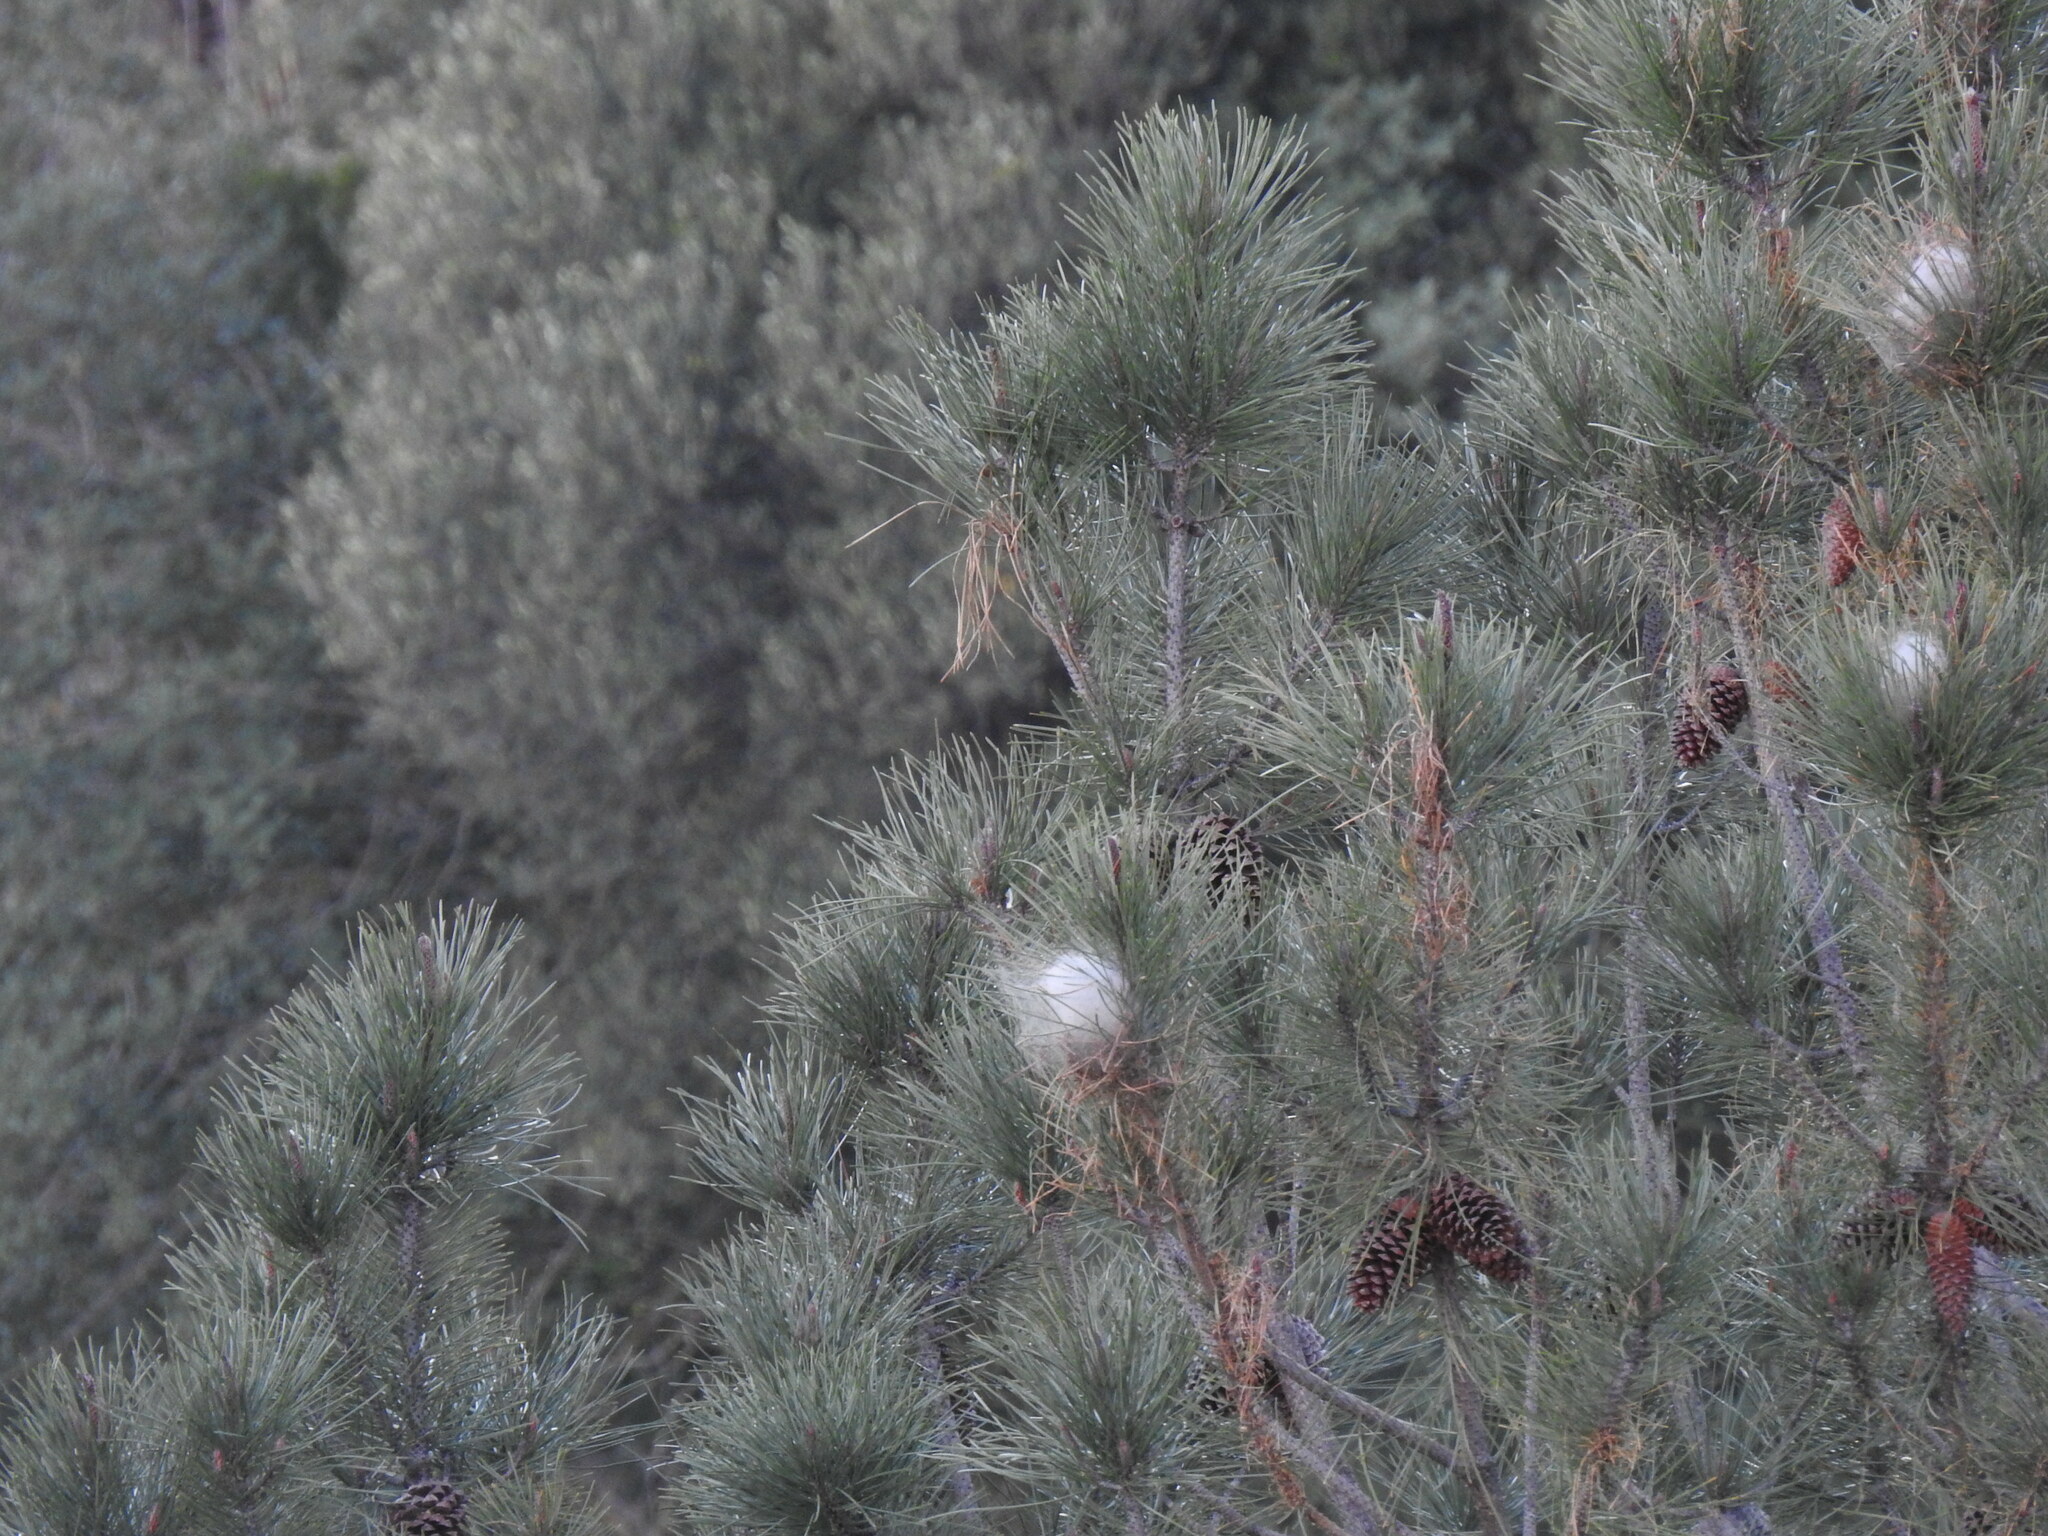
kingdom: Animalia
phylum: Arthropoda
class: Insecta
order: Lepidoptera
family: Notodontidae
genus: Thaumetopoea
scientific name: Thaumetopoea pityocampa
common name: Pine processionary
